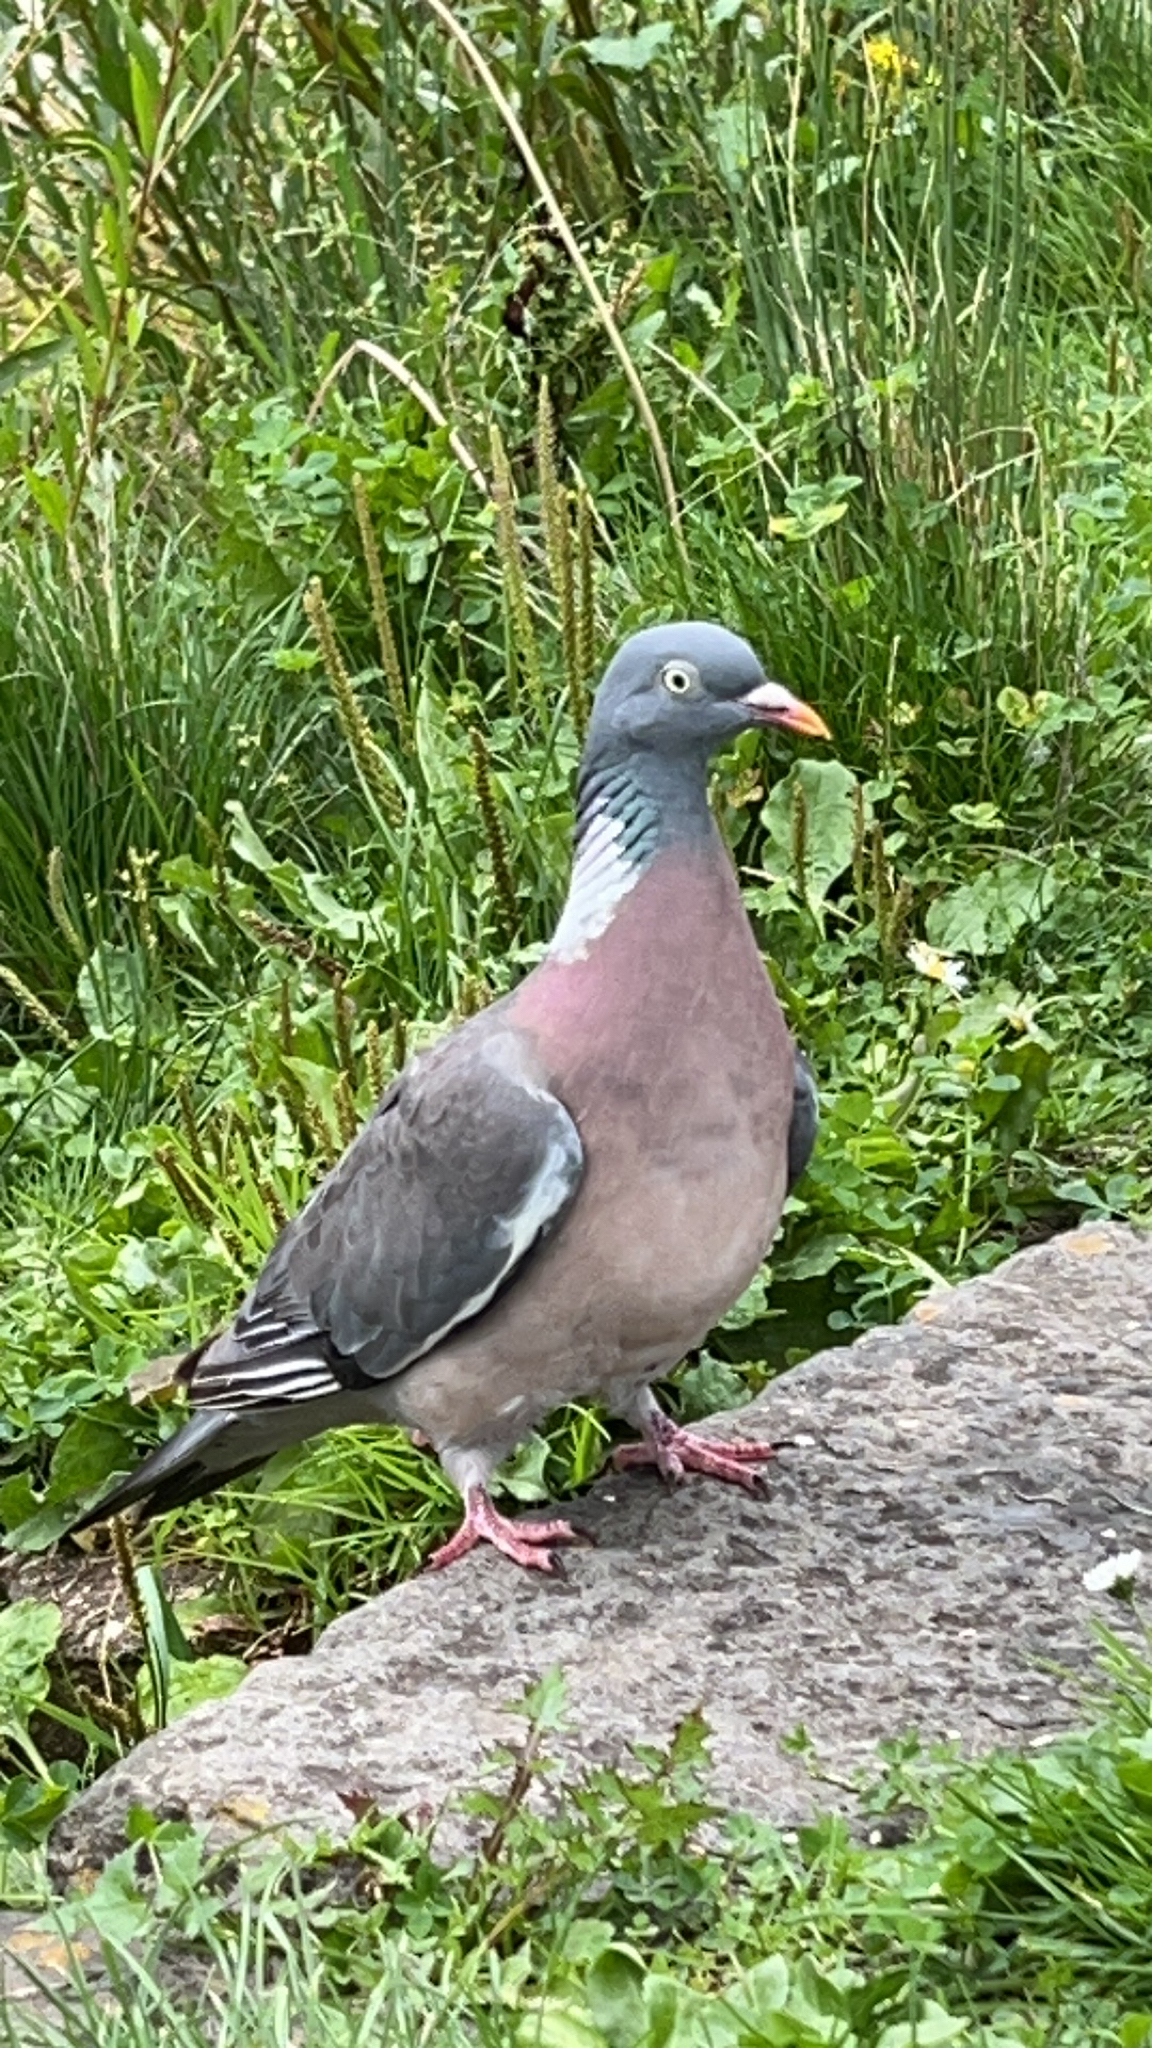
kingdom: Animalia
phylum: Chordata
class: Aves
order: Columbiformes
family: Columbidae
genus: Columba
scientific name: Columba palumbus
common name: Common wood pigeon
